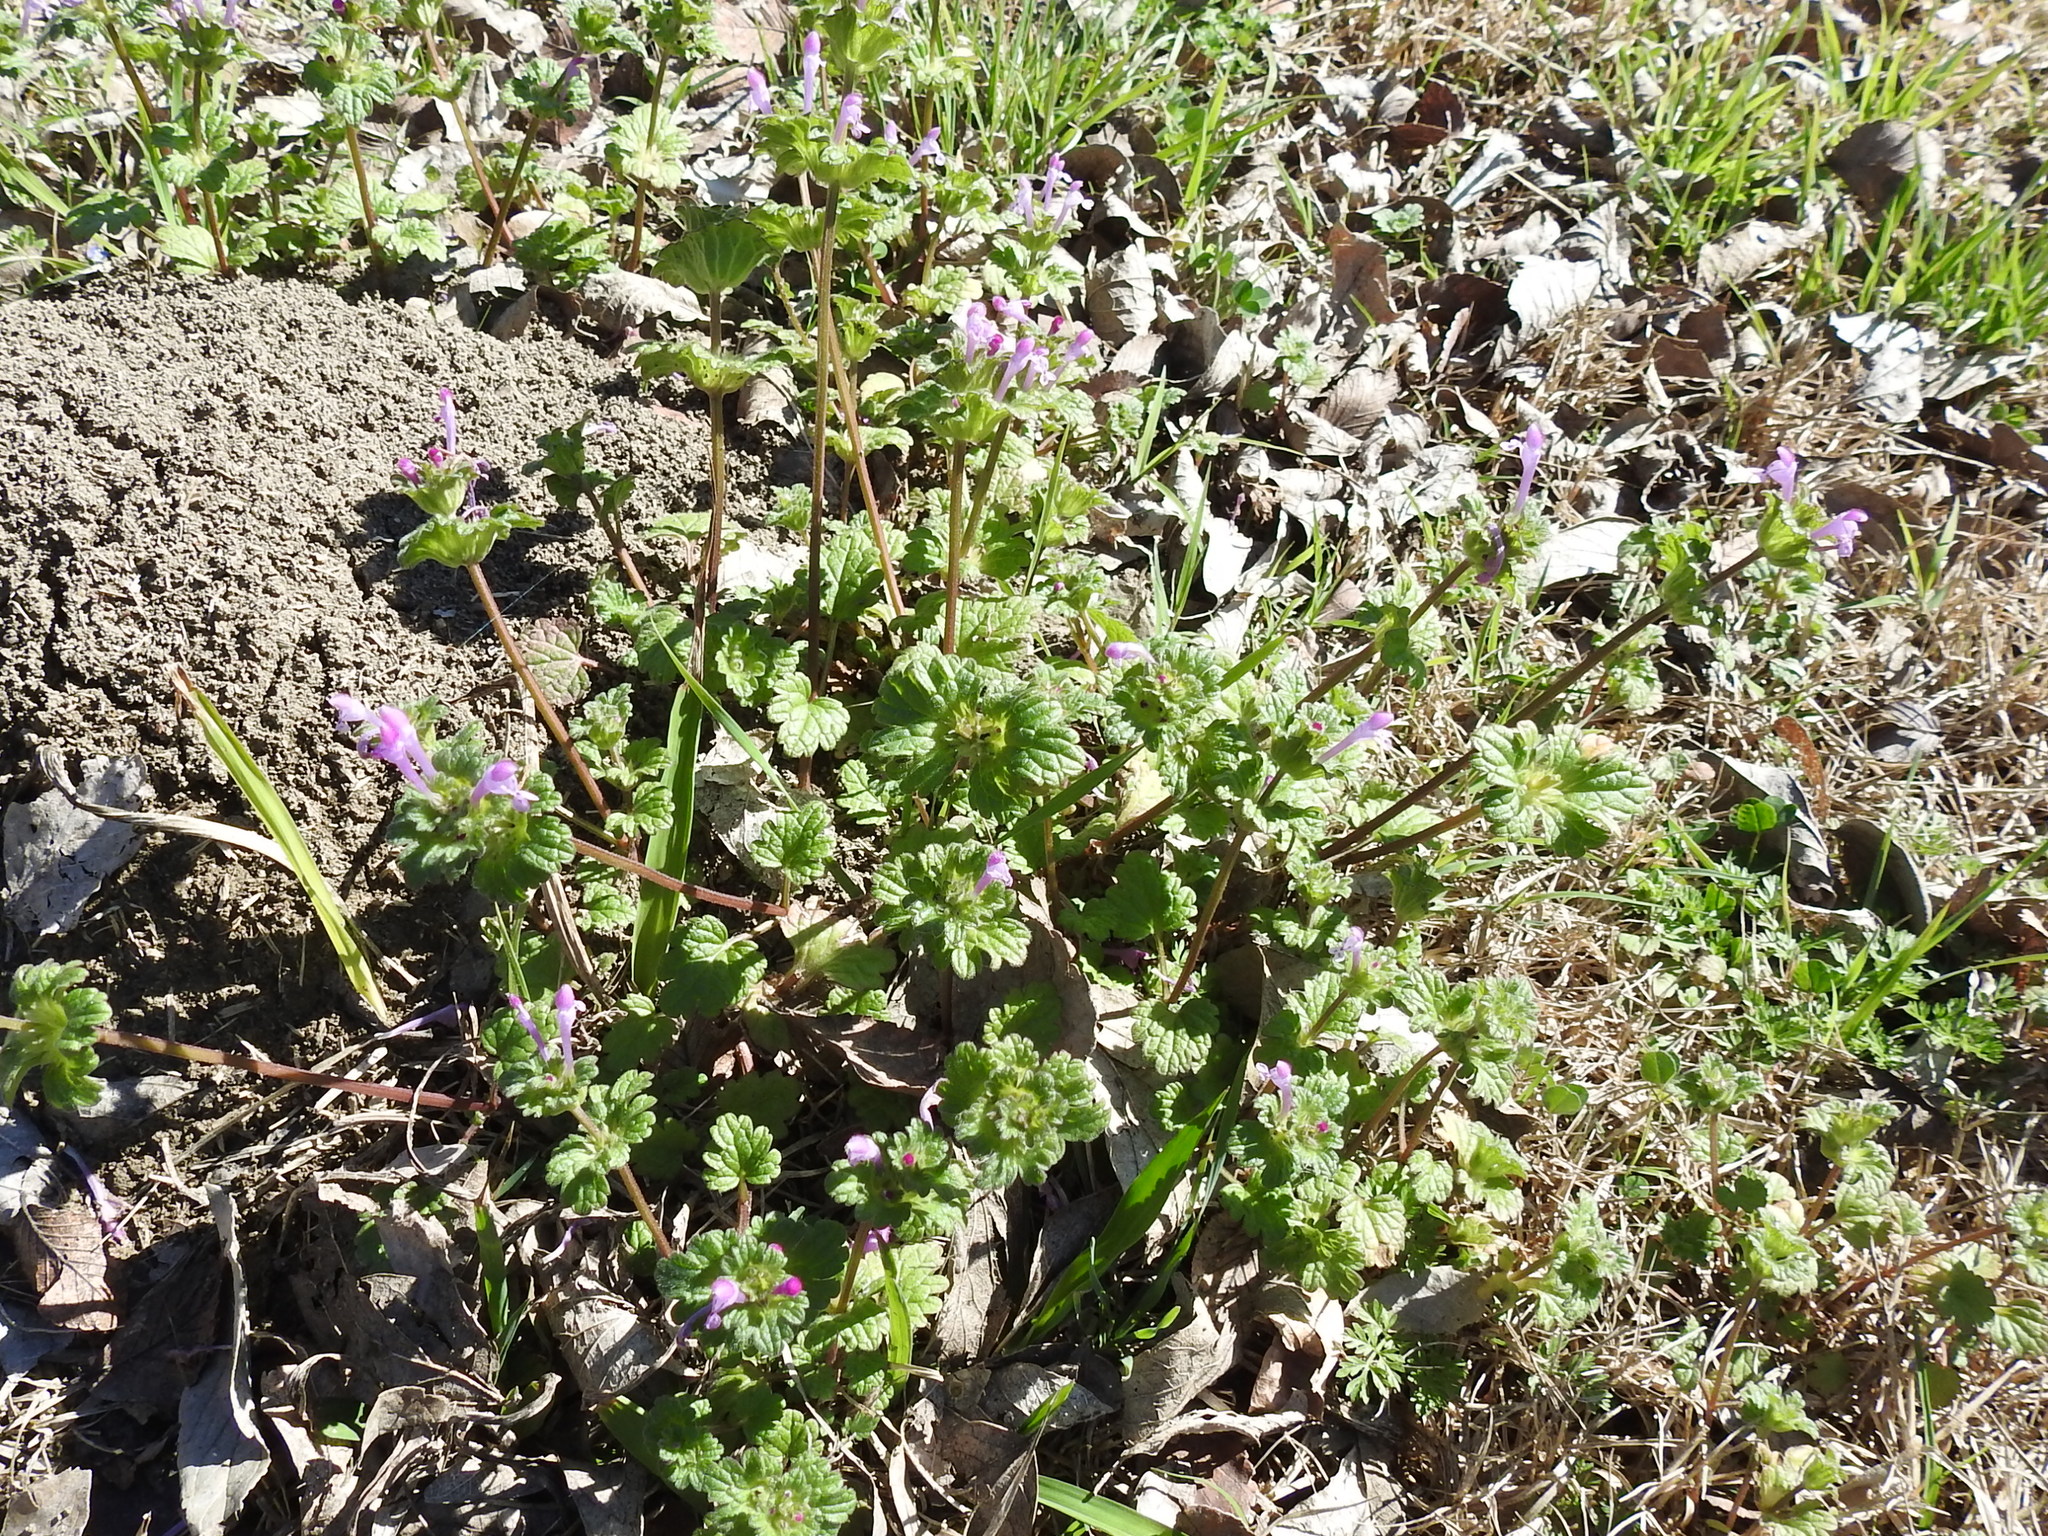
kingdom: Plantae
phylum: Tracheophyta
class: Magnoliopsida
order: Lamiales
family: Lamiaceae
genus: Lamium
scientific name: Lamium amplexicaule
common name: Henbit dead-nettle
